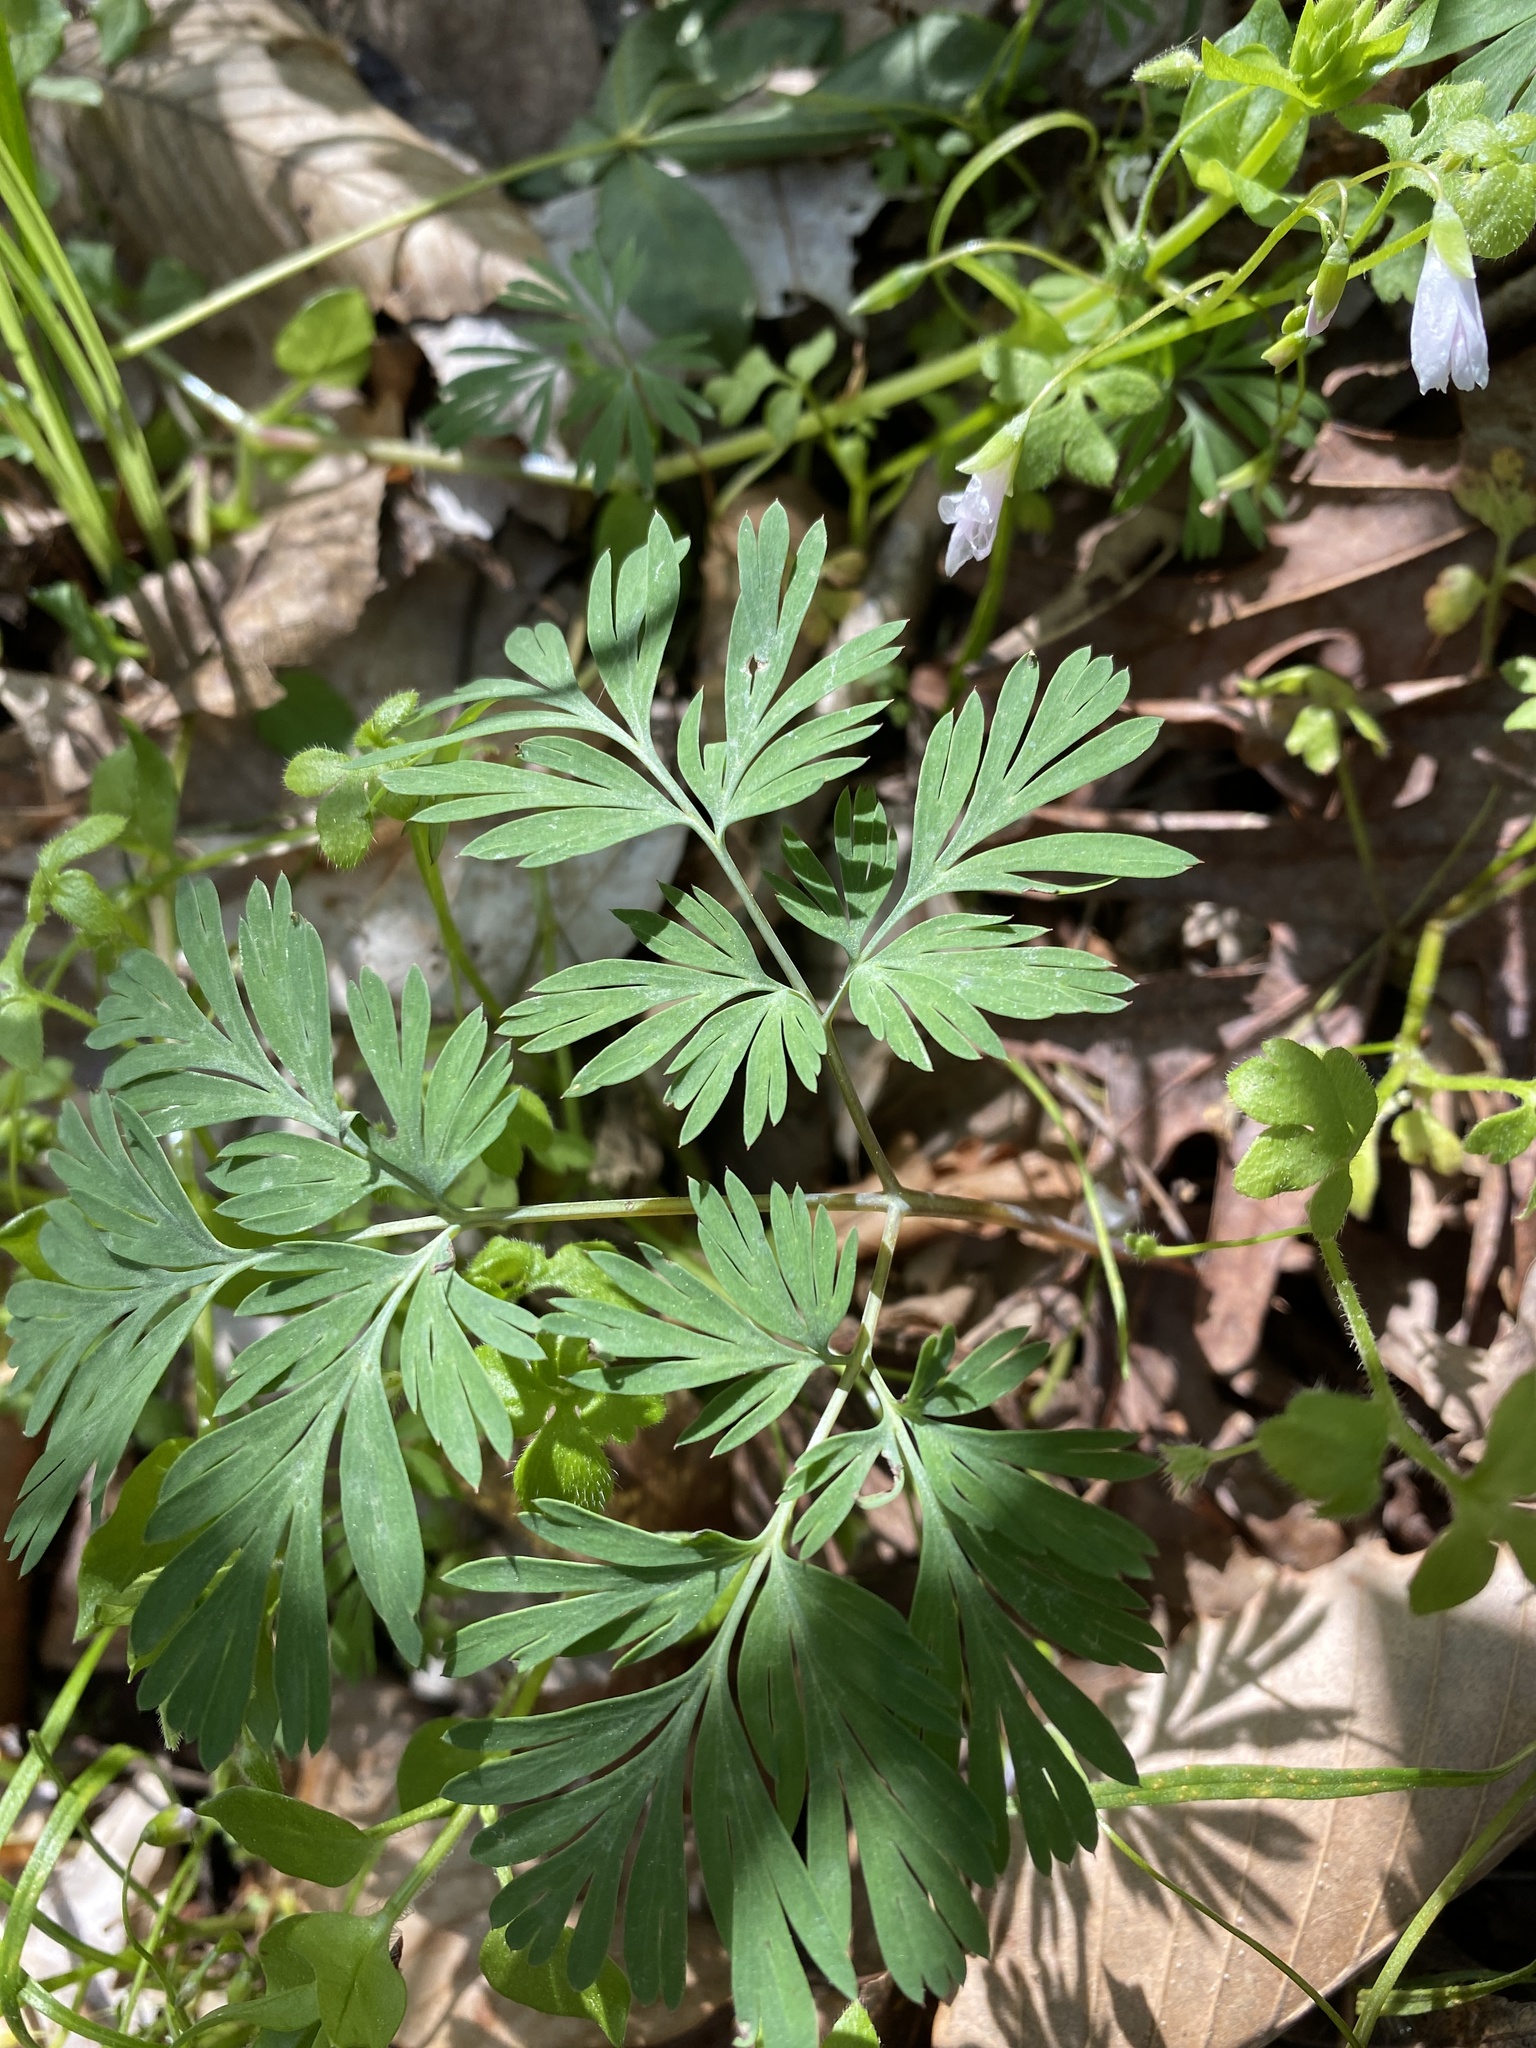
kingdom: Plantae
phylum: Tracheophyta
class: Magnoliopsida
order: Ranunculales
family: Papaveraceae
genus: Dicentra
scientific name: Dicentra cucullaria
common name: Dutchman's breeches
